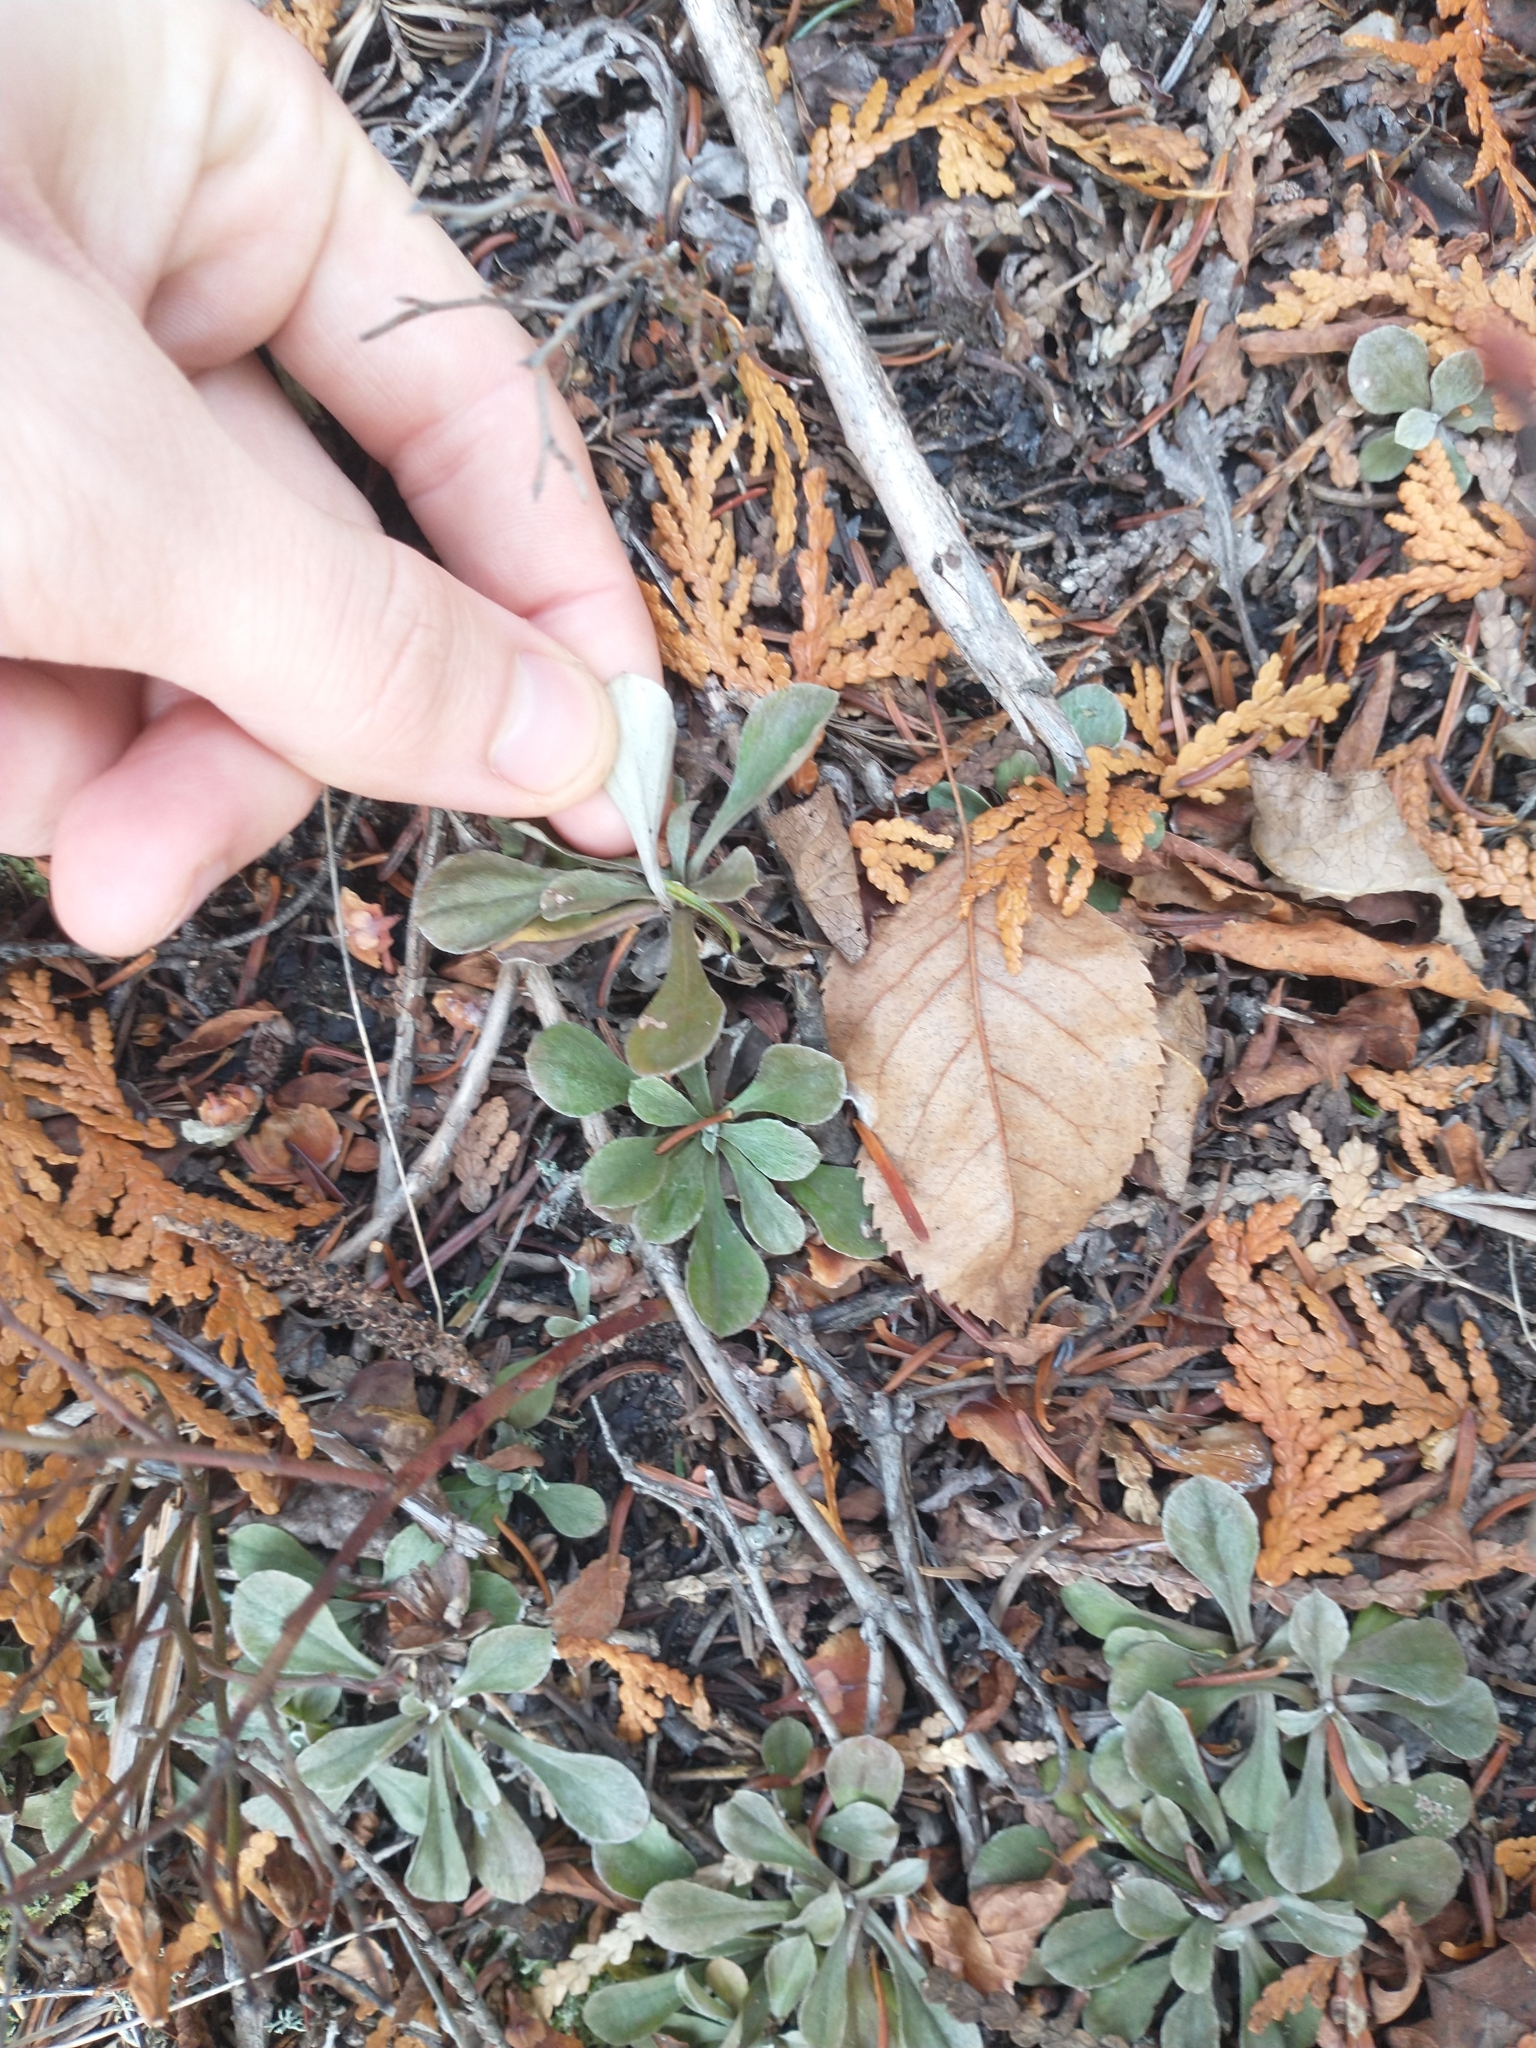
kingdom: Plantae
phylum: Tracheophyta
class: Magnoliopsida
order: Asterales
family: Asteraceae
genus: Antennaria
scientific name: Antennaria howellii
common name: Howell's pussytoes
